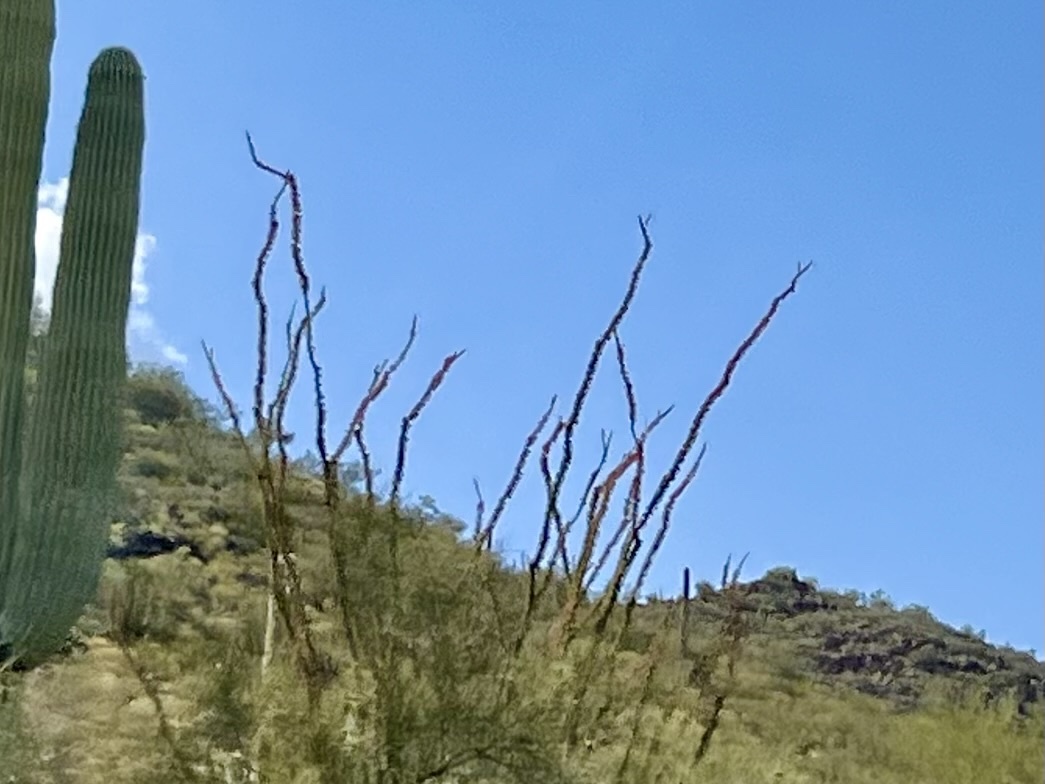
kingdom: Plantae
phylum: Tracheophyta
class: Magnoliopsida
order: Ericales
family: Fouquieriaceae
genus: Fouquieria
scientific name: Fouquieria splendens
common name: Vine-cactus
